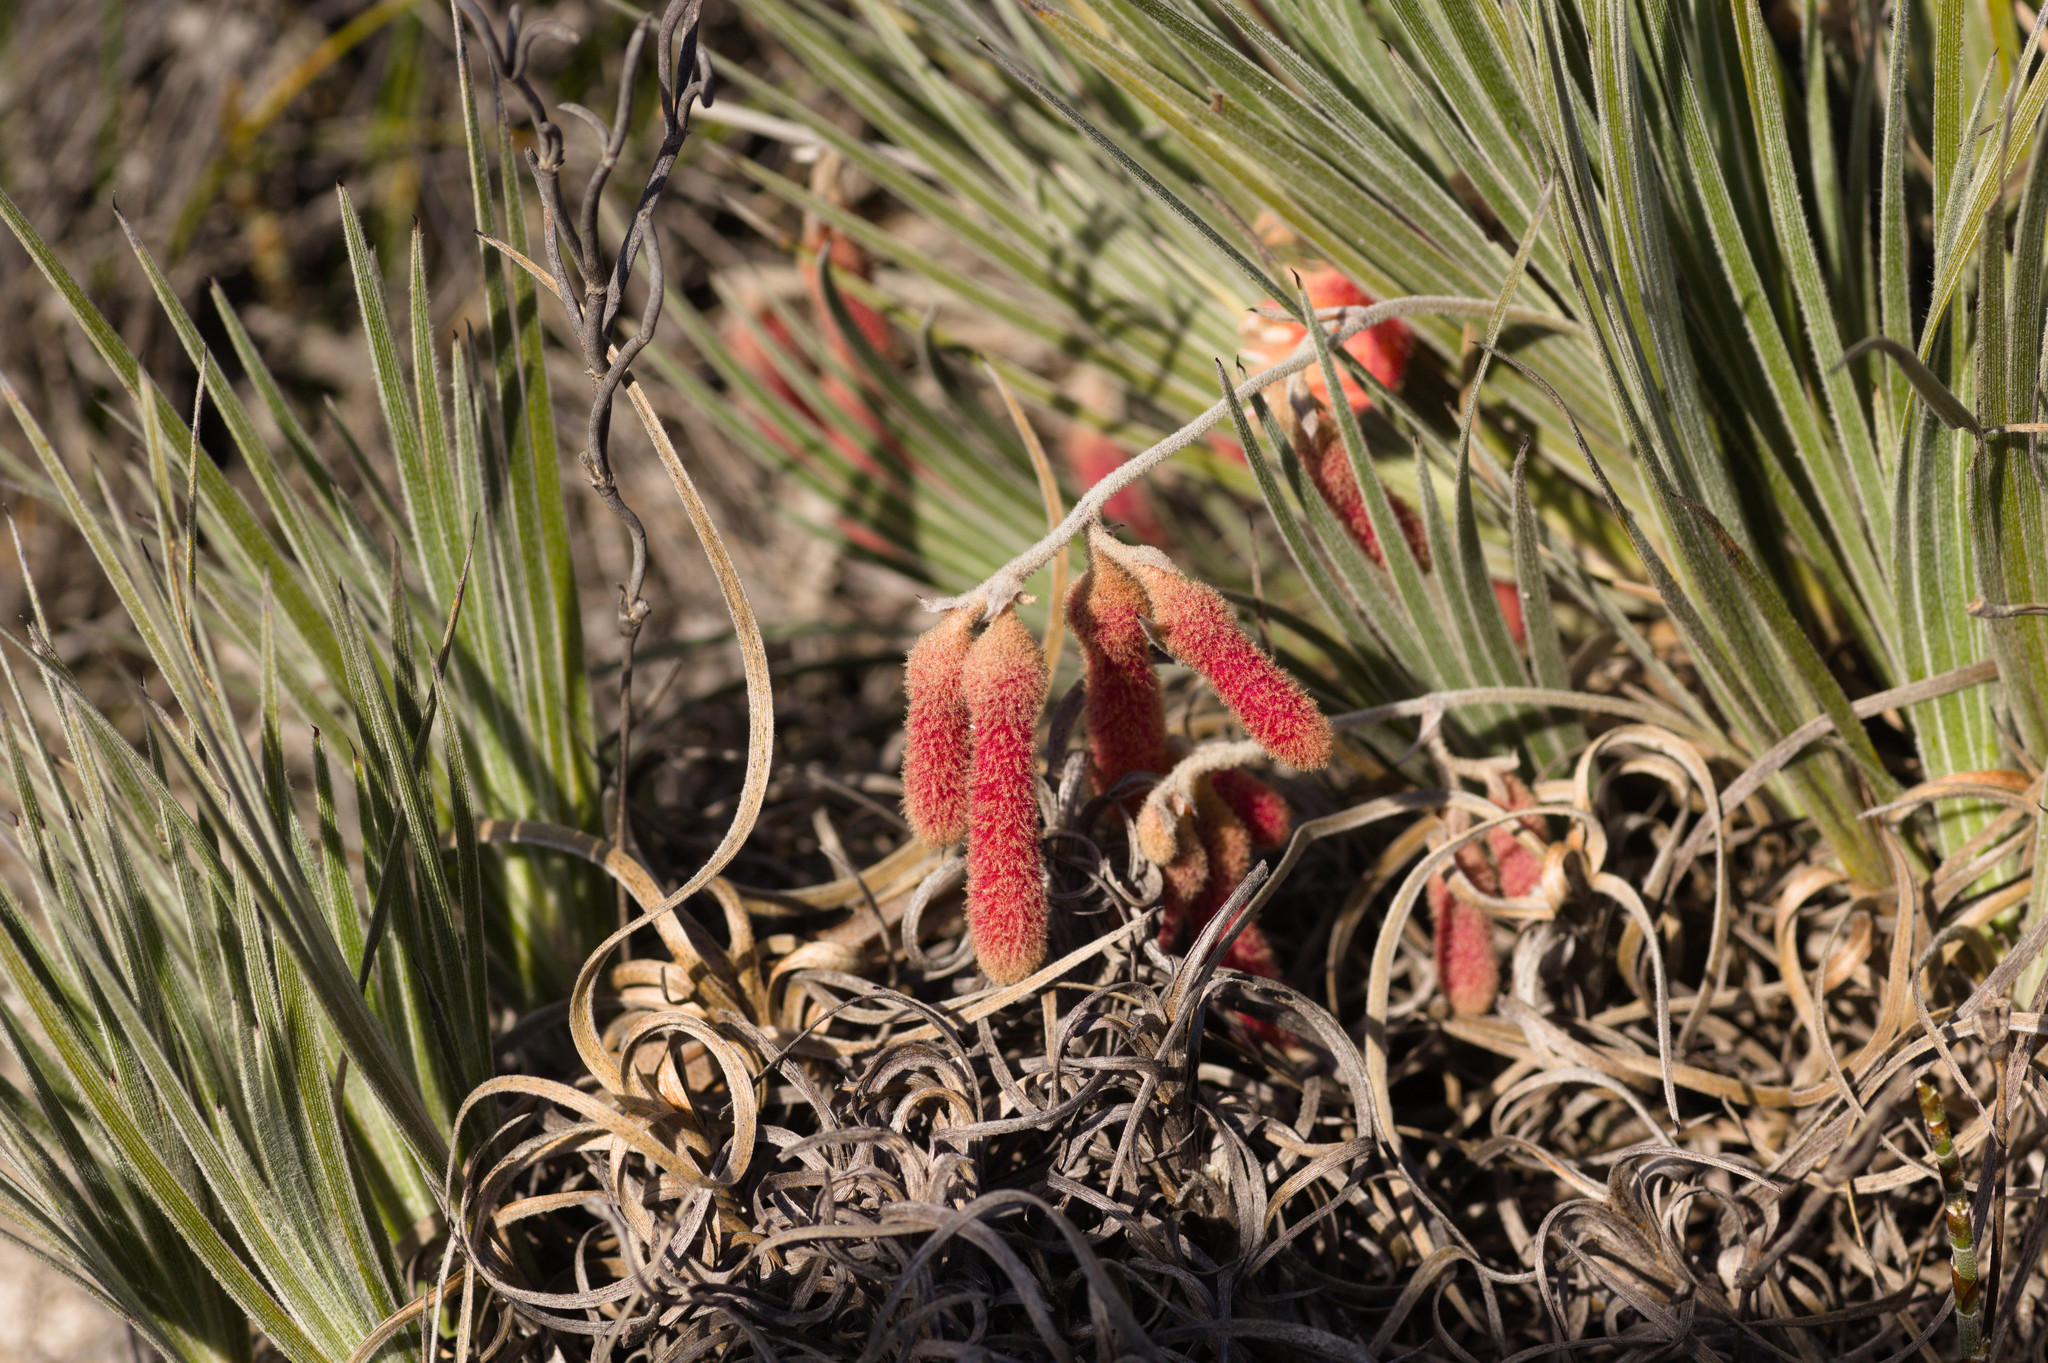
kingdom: Plantae
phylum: Tracheophyta
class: Liliopsida
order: Commelinales
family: Haemodoraceae
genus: Blancoa
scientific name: Blancoa canescens
